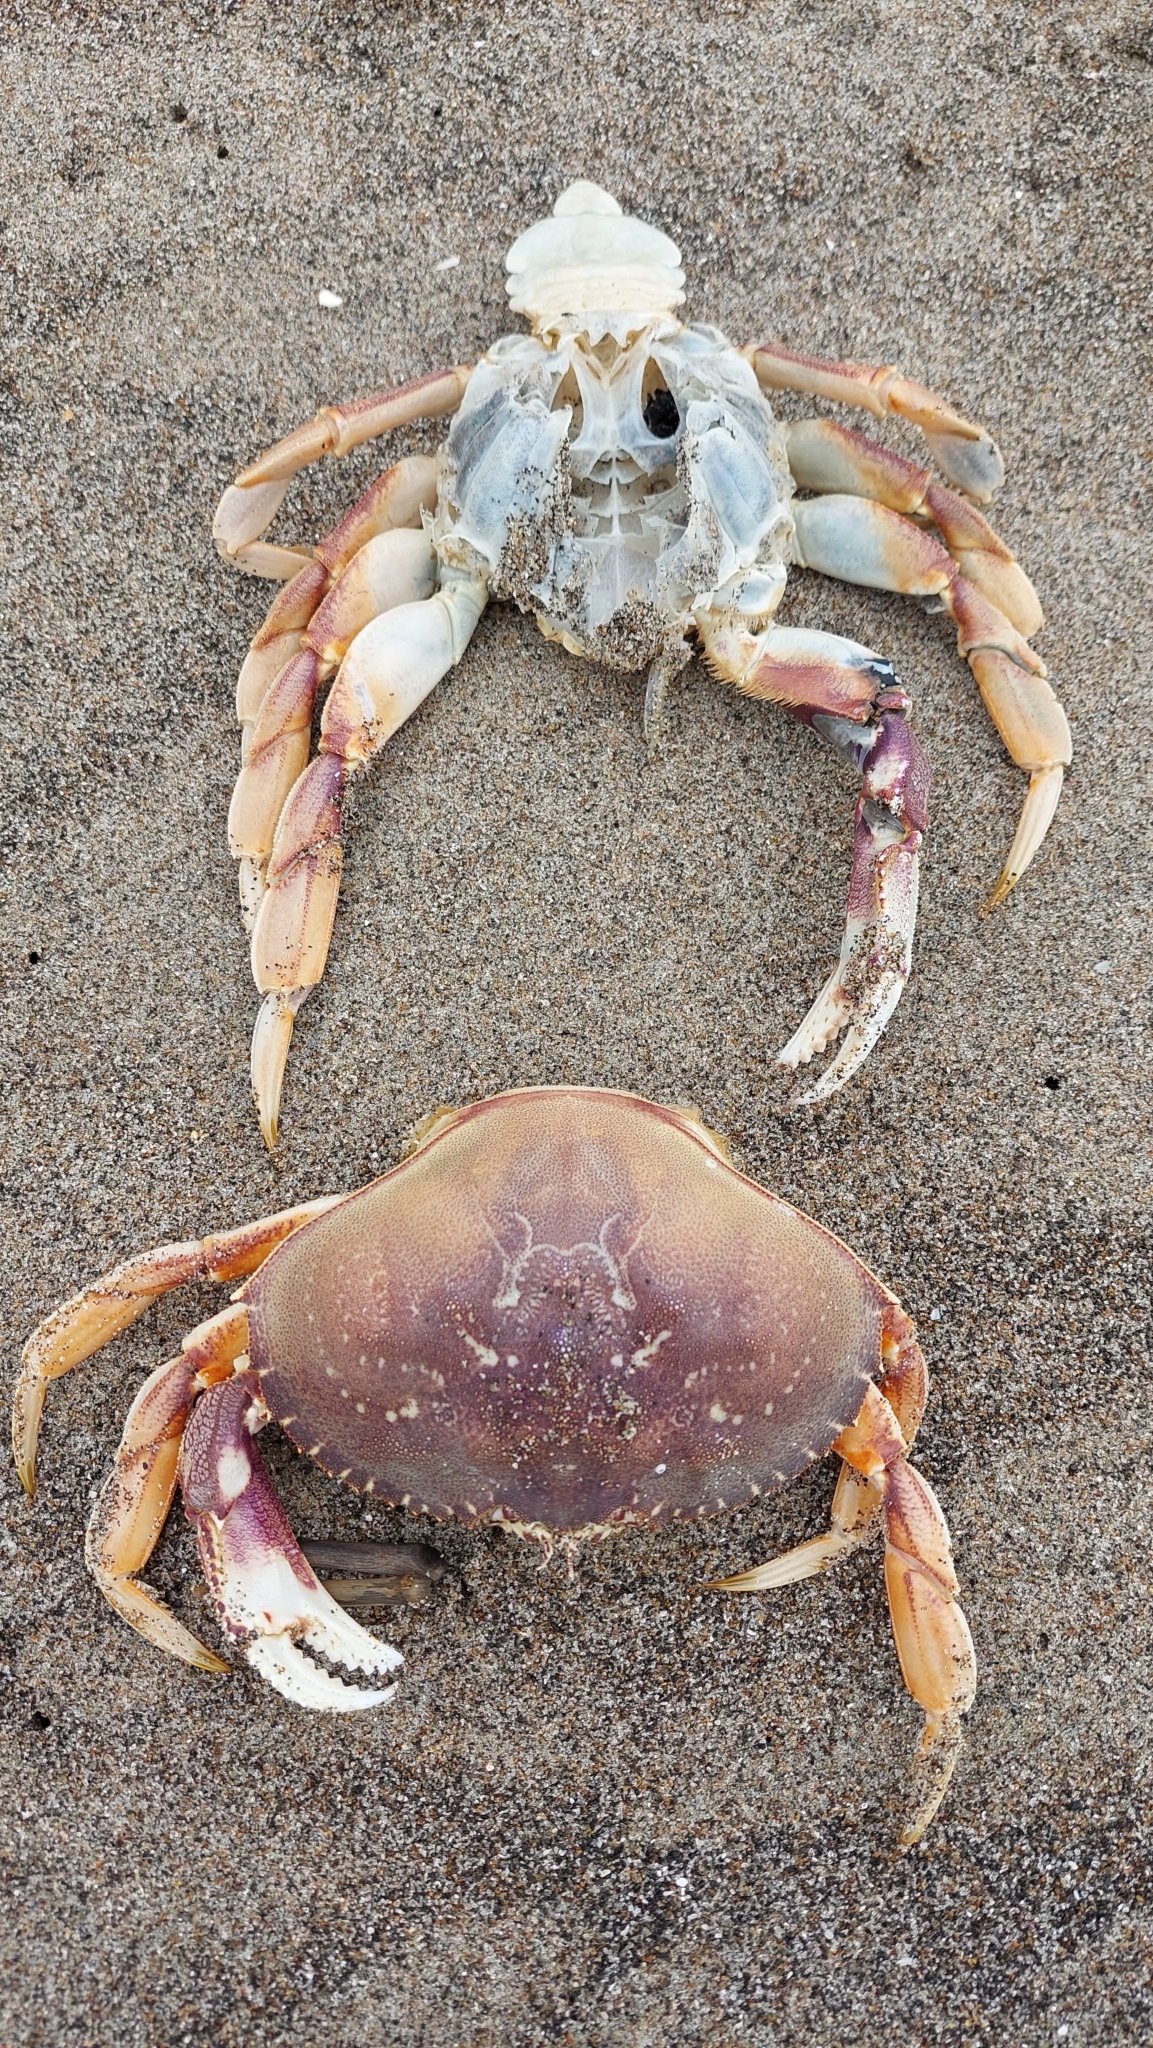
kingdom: Animalia
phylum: Arthropoda
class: Malacostraca
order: Decapoda
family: Cancridae
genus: Metacarcinus
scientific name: Metacarcinus magister
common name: Californian crab
